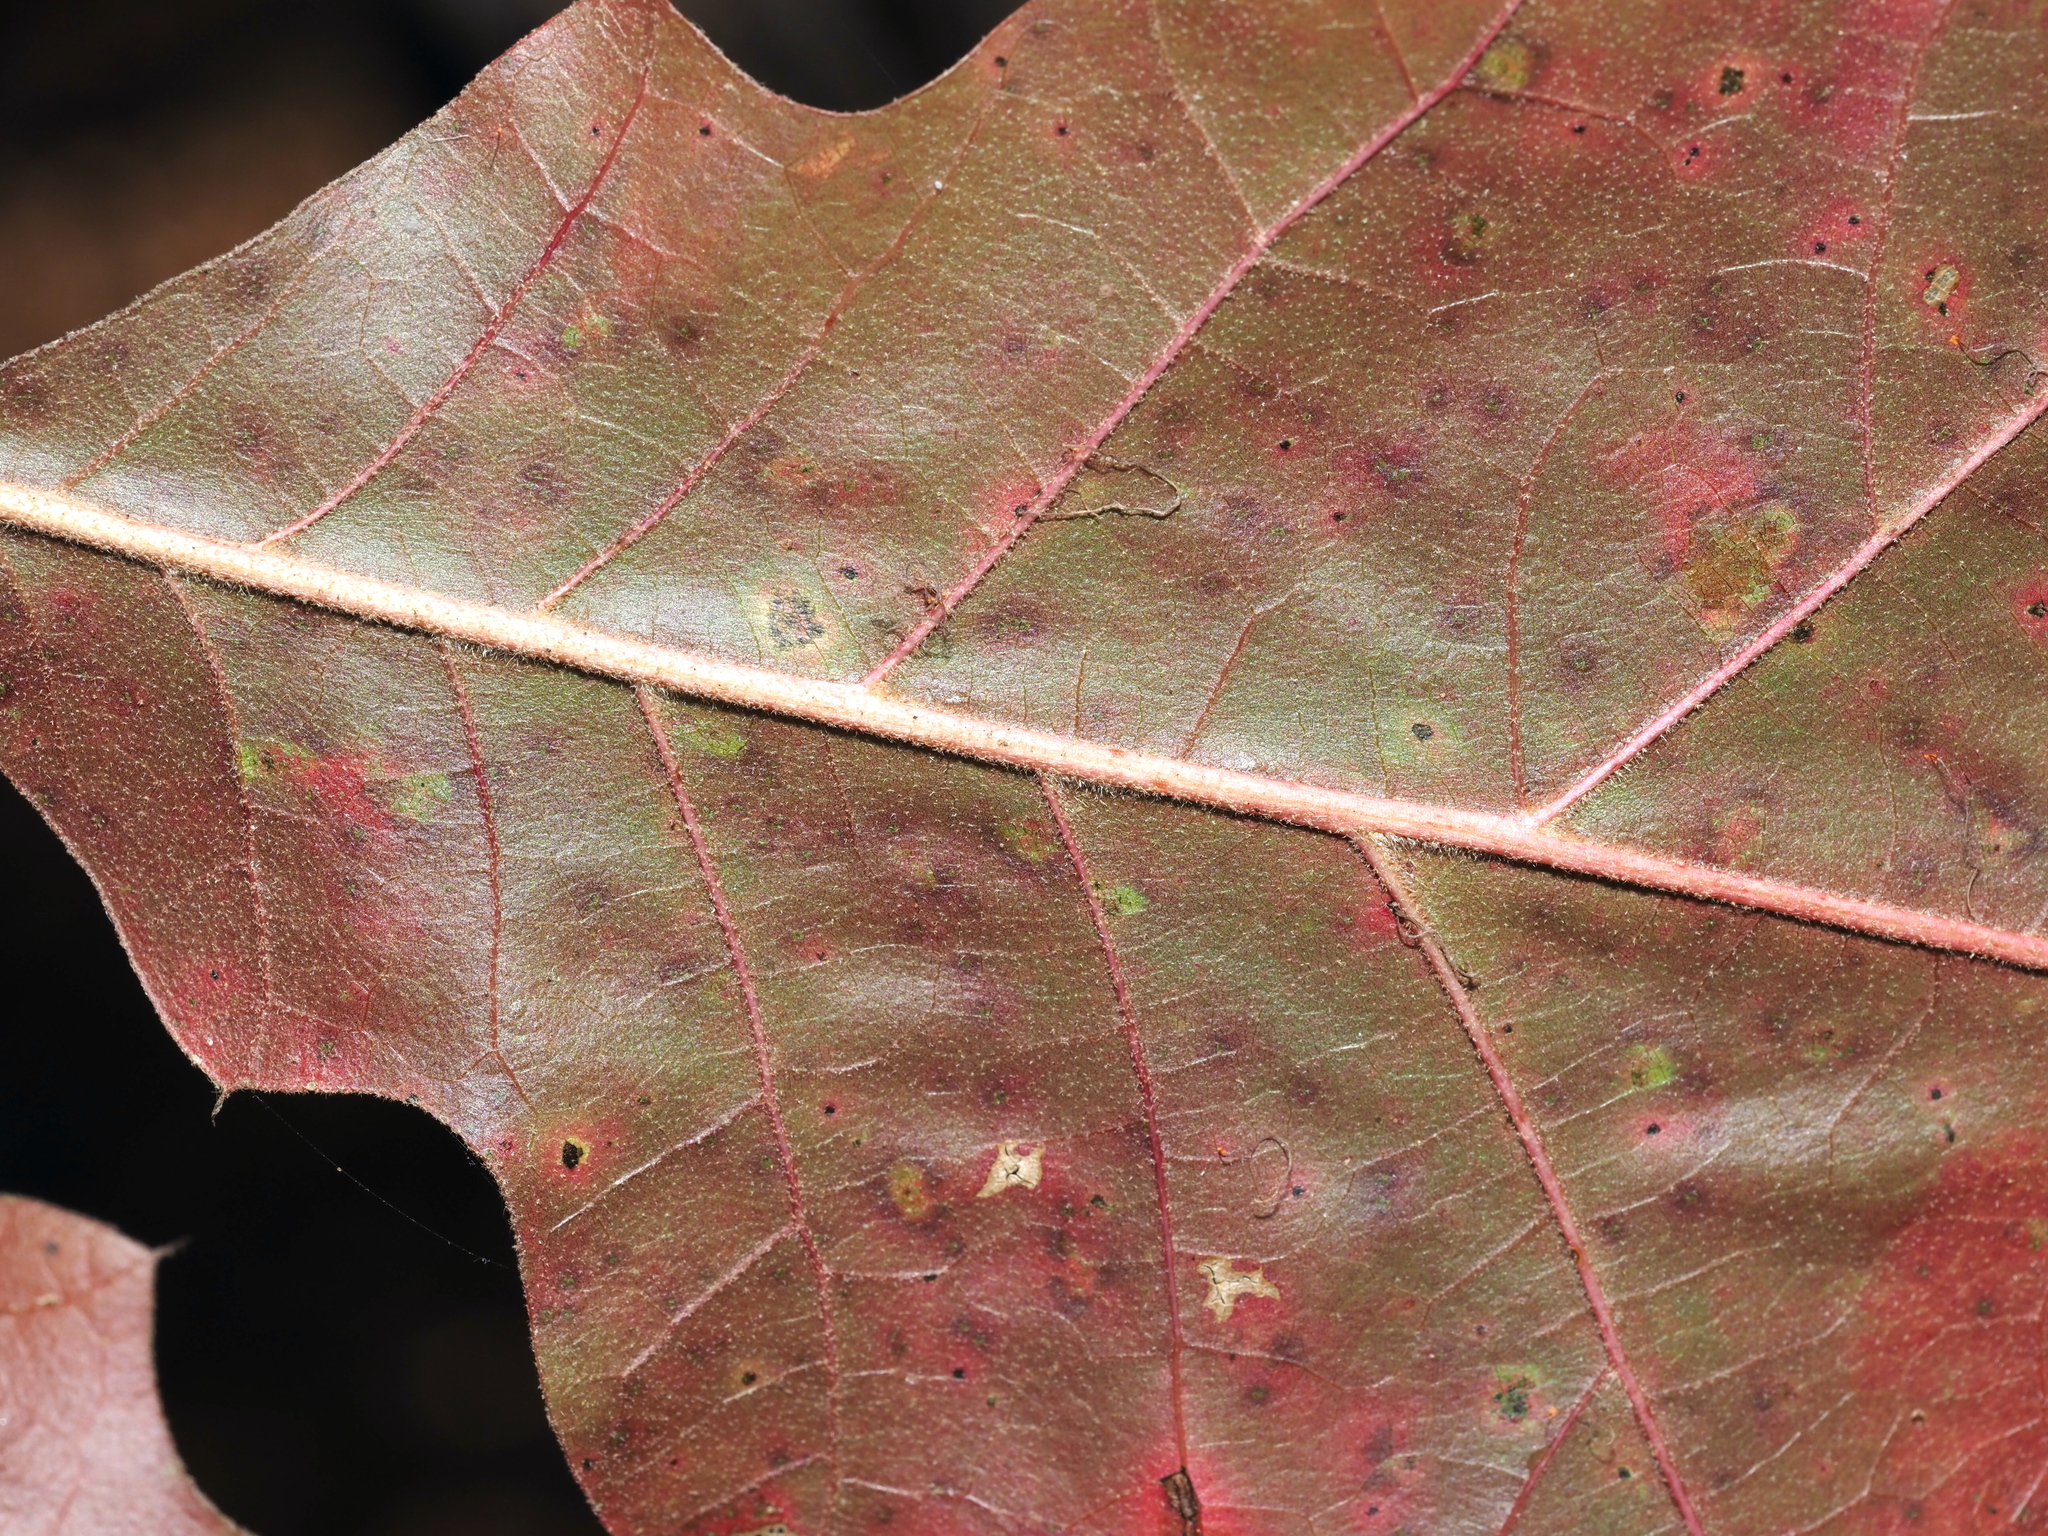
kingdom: Plantae
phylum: Tracheophyta
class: Magnoliopsida
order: Fagales
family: Fagaceae
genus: Quercus
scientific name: Quercus velutina
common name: Black oak
